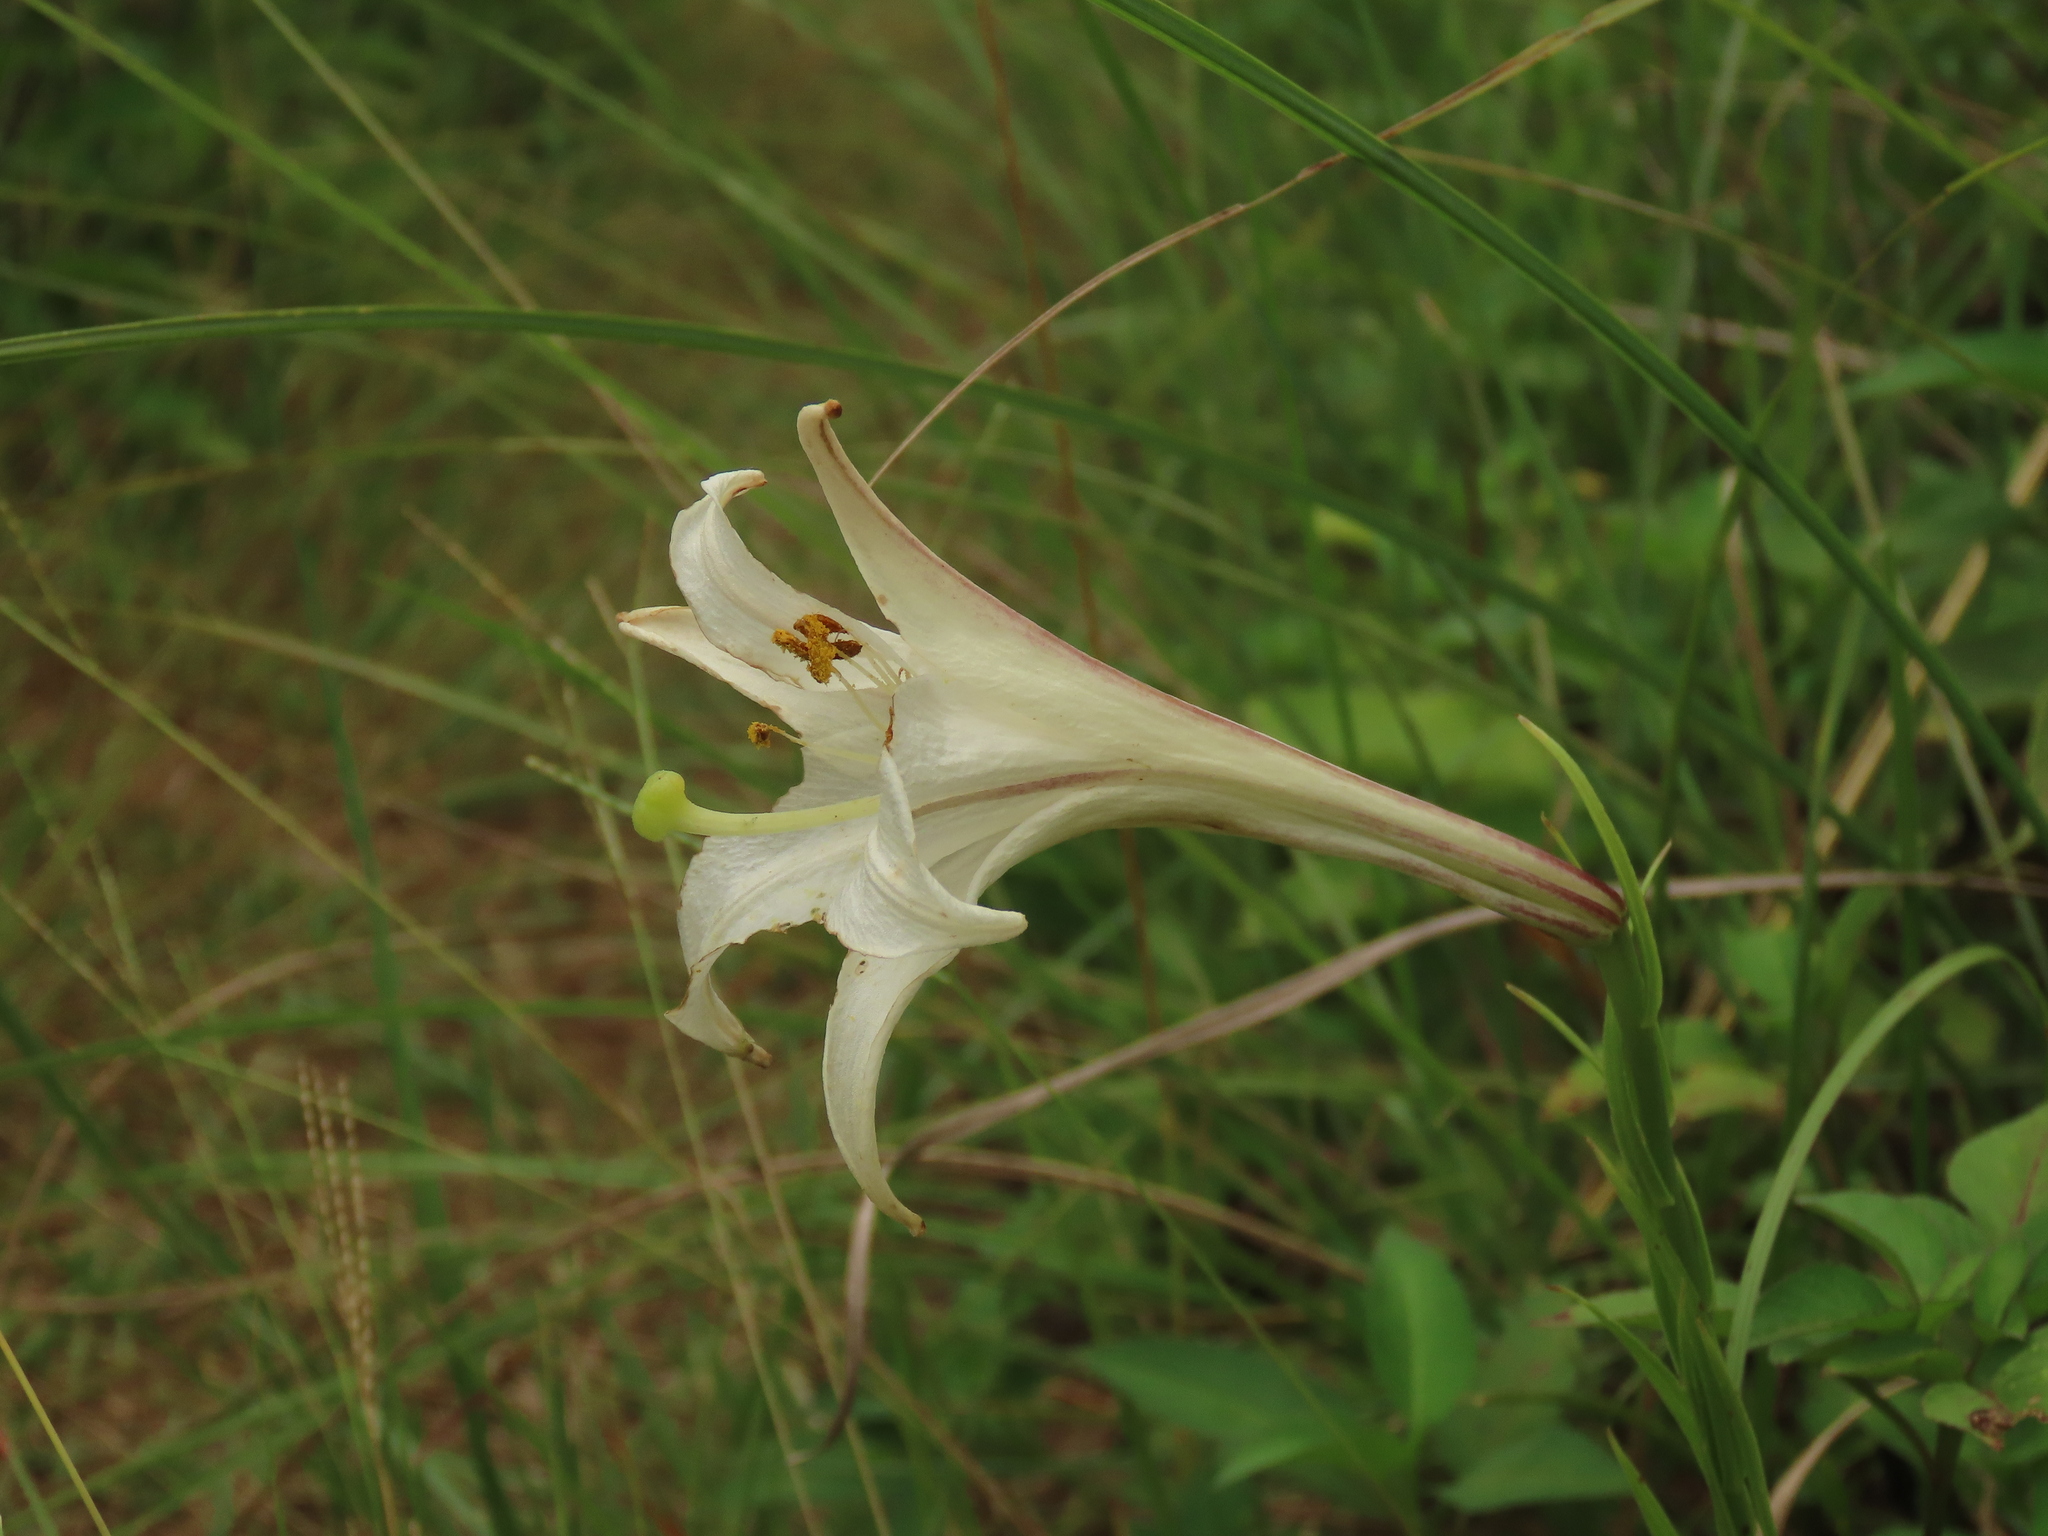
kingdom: Plantae
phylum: Tracheophyta
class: Liliopsida
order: Liliales
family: Liliaceae
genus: Lilium
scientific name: Lilium formosanum
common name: Formosa lily
